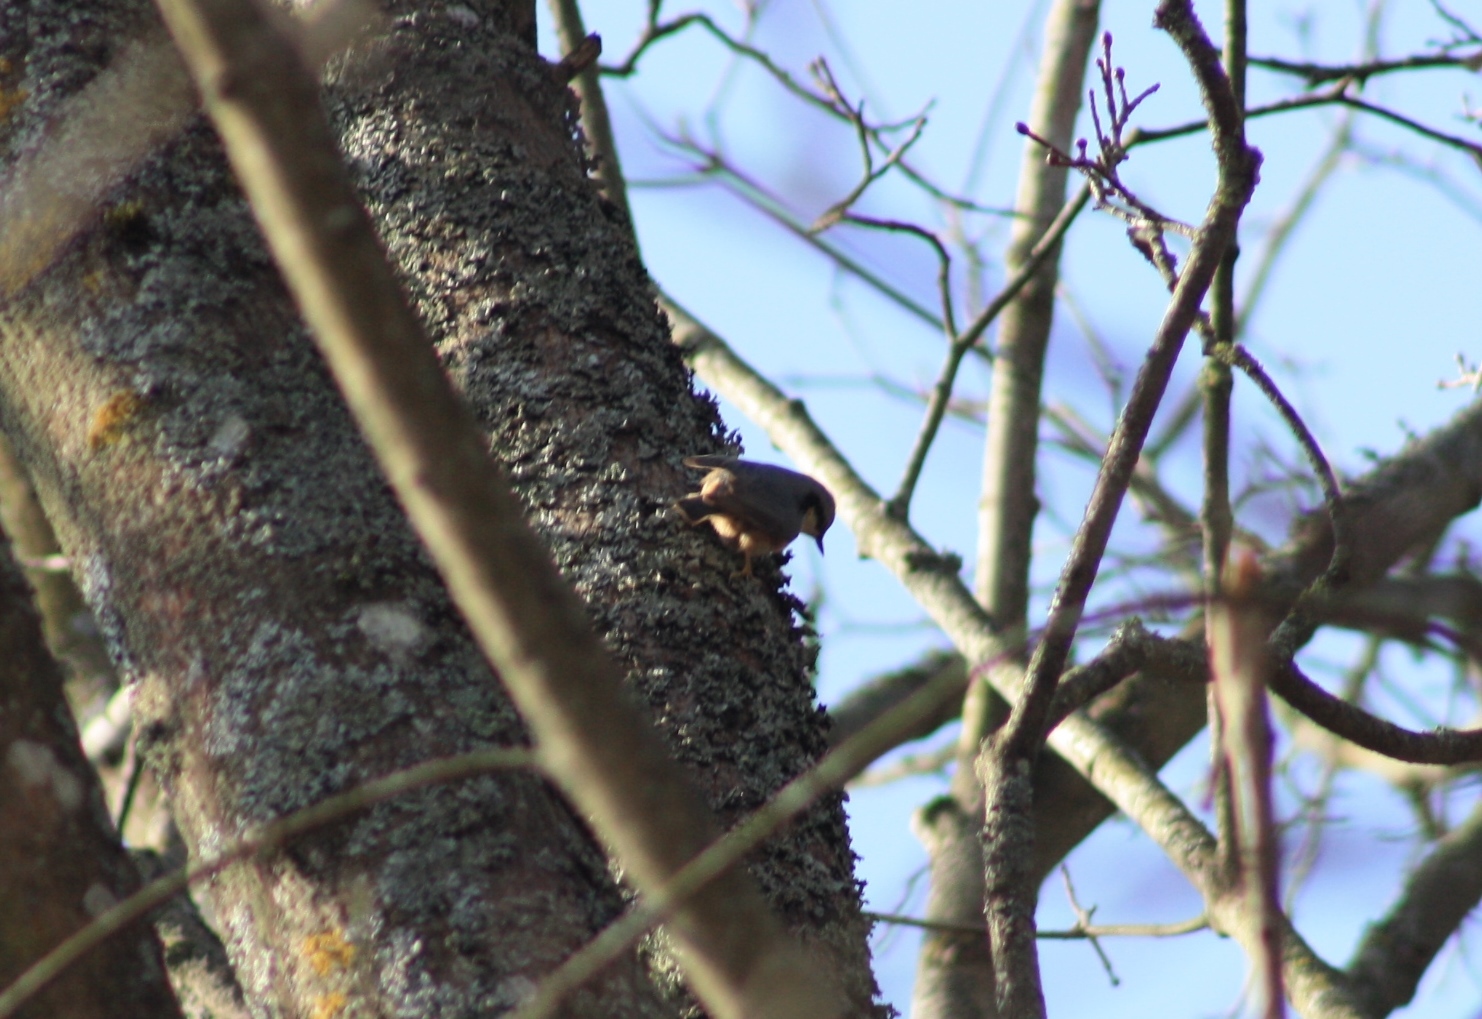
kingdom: Animalia
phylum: Chordata
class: Aves
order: Passeriformes
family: Sittidae
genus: Sitta
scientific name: Sitta europaea
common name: Eurasian nuthatch
